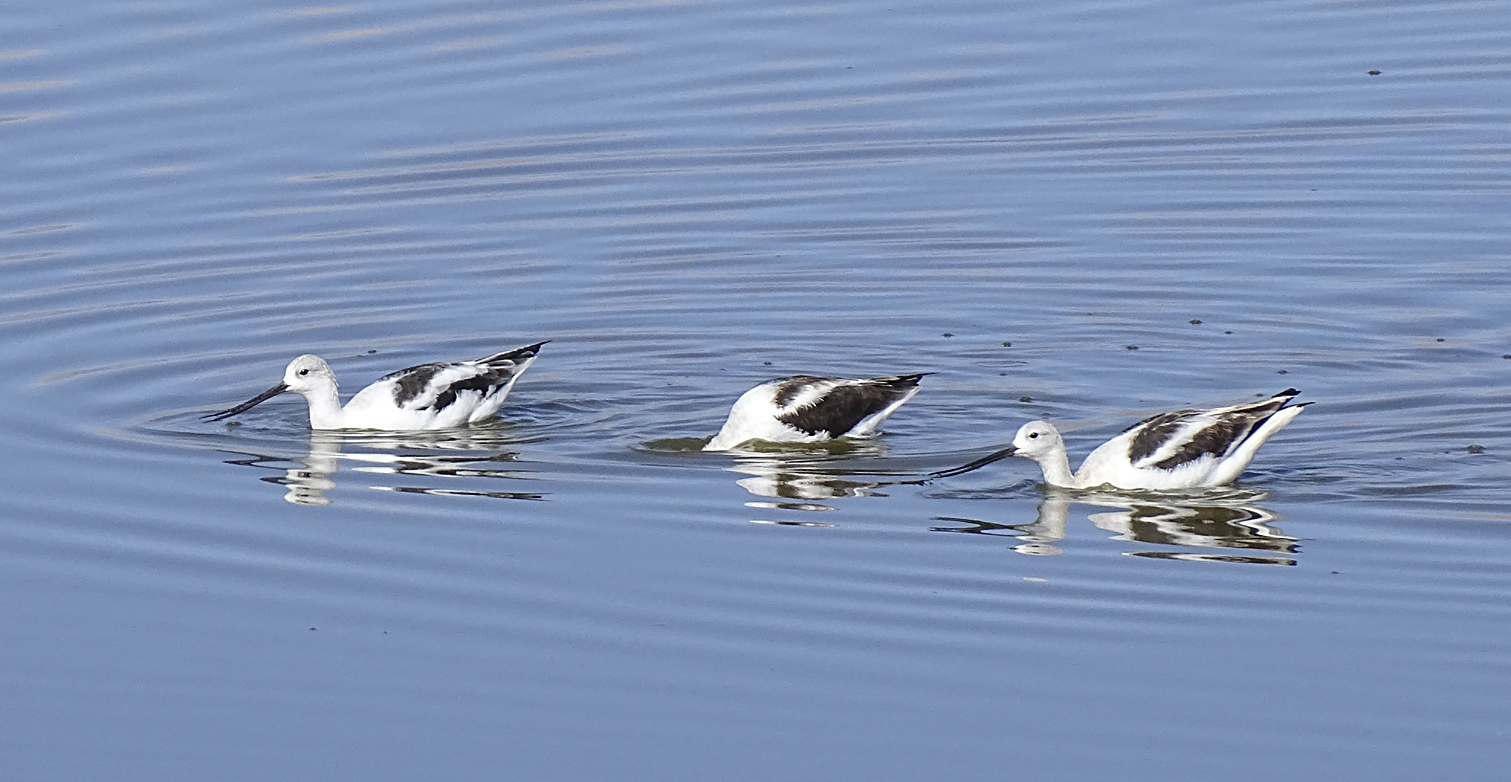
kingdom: Animalia
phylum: Chordata
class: Aves
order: Charadriiformes
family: Recurvirostridae
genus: Recurvirostra
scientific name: Recurvirostra americana
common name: American avocet
